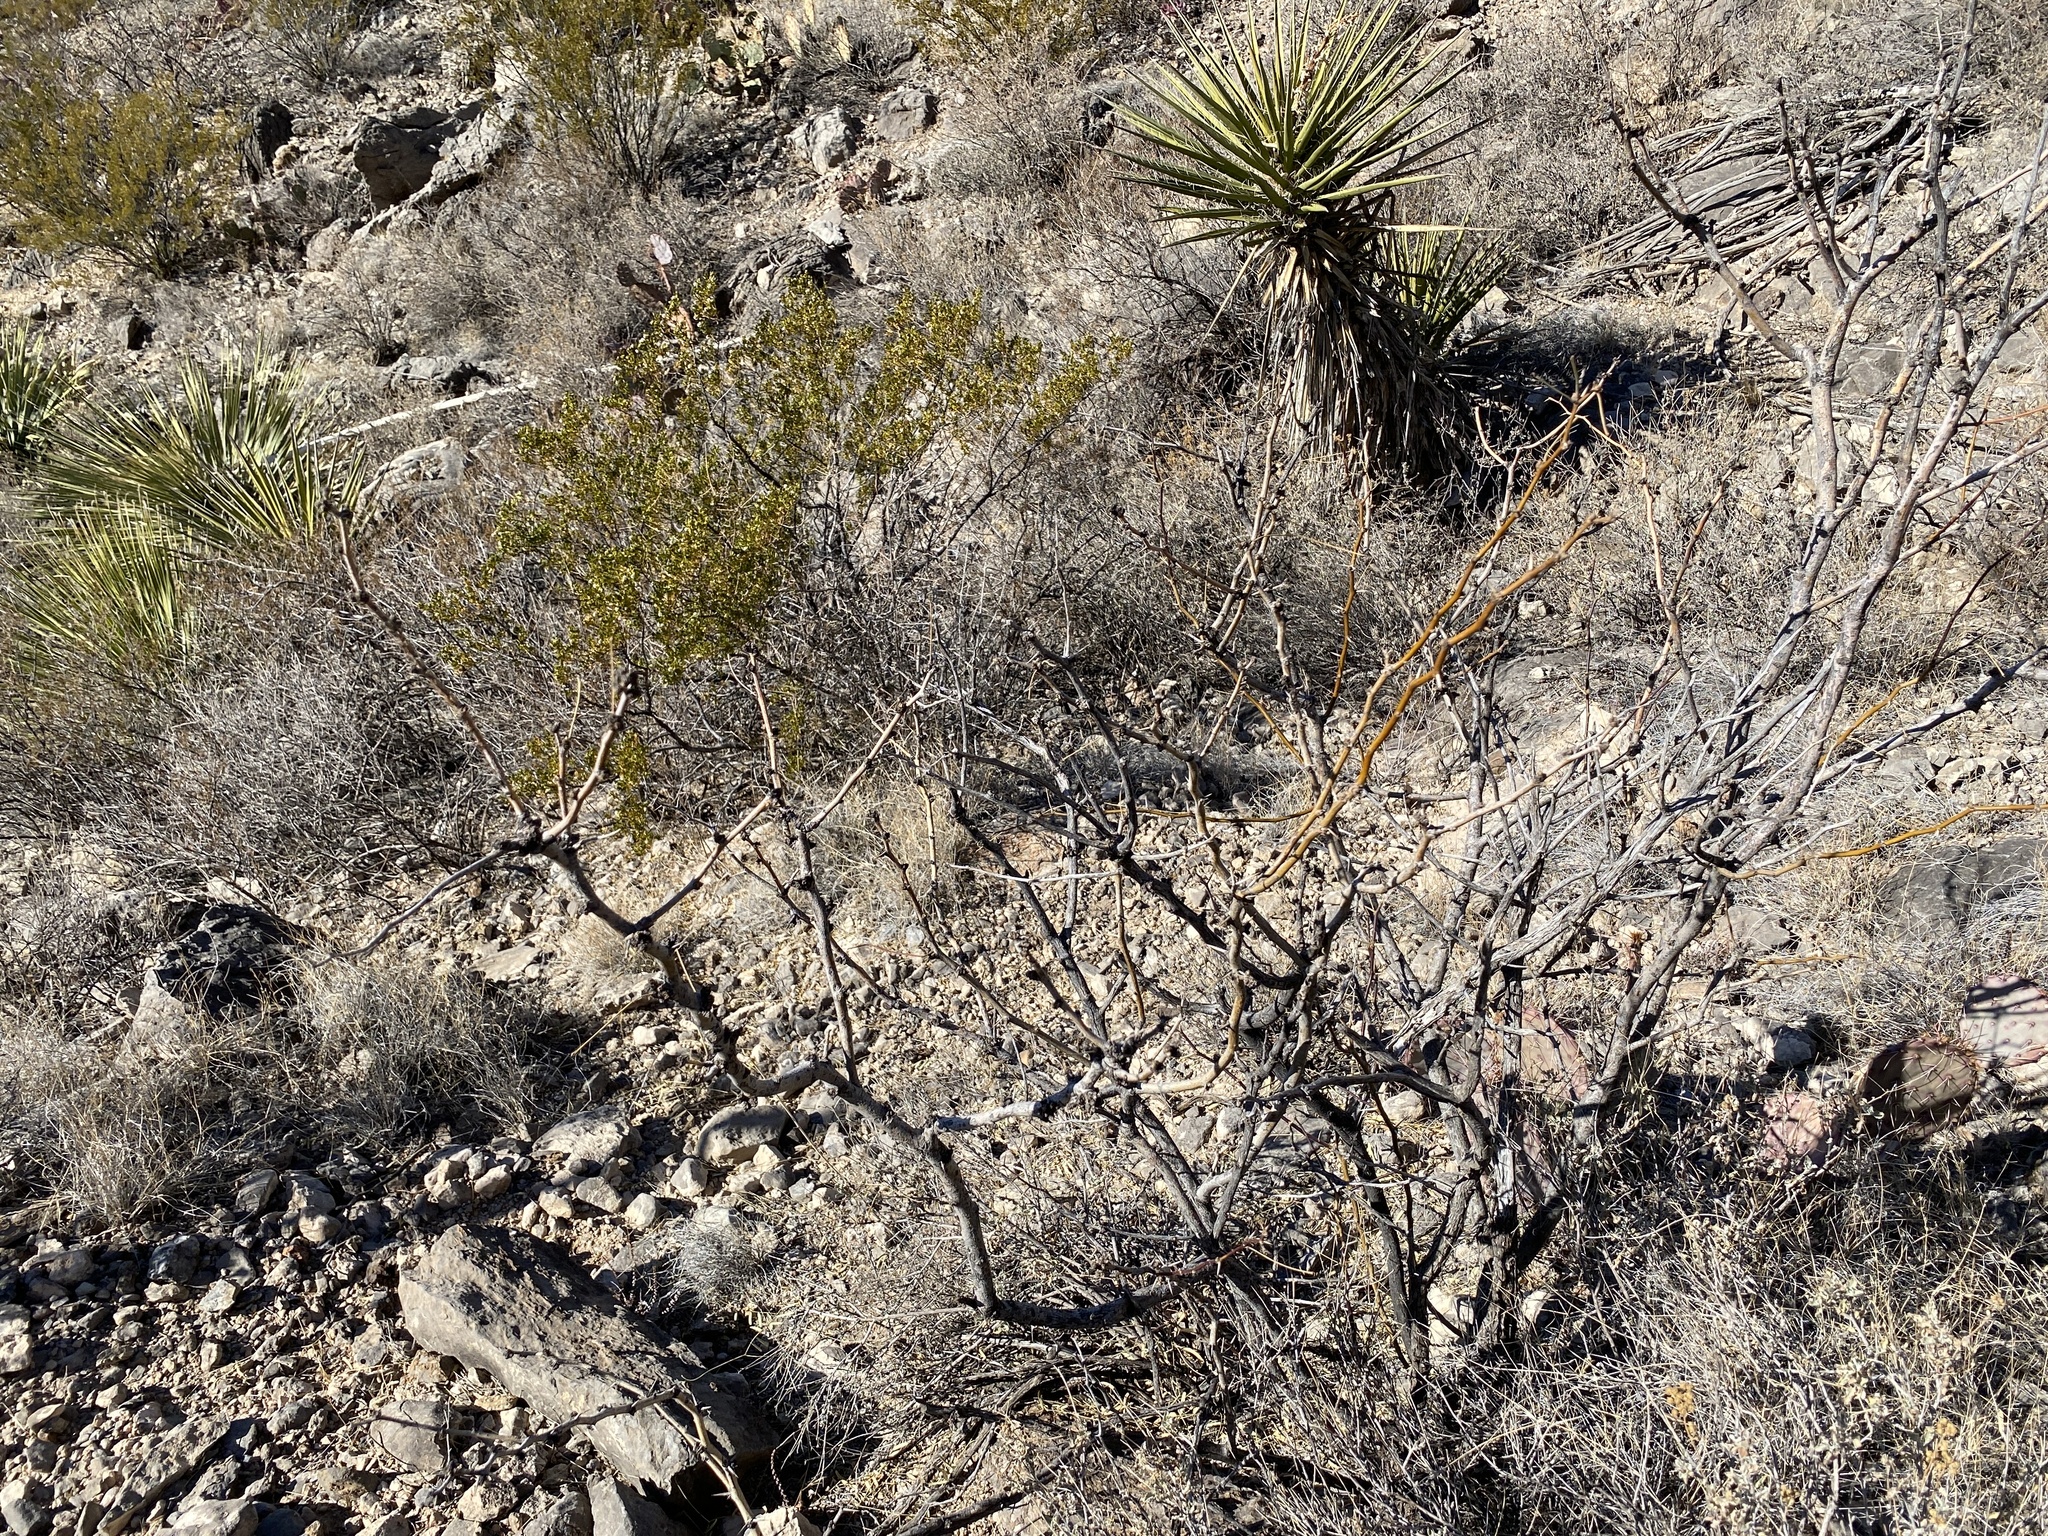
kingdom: Plantae
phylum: Tracheophyta
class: Magnoliopsida
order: Fabales
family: Fabaceae
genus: Prosopis
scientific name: Prosopis glandulosa
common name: Honey mesquite
